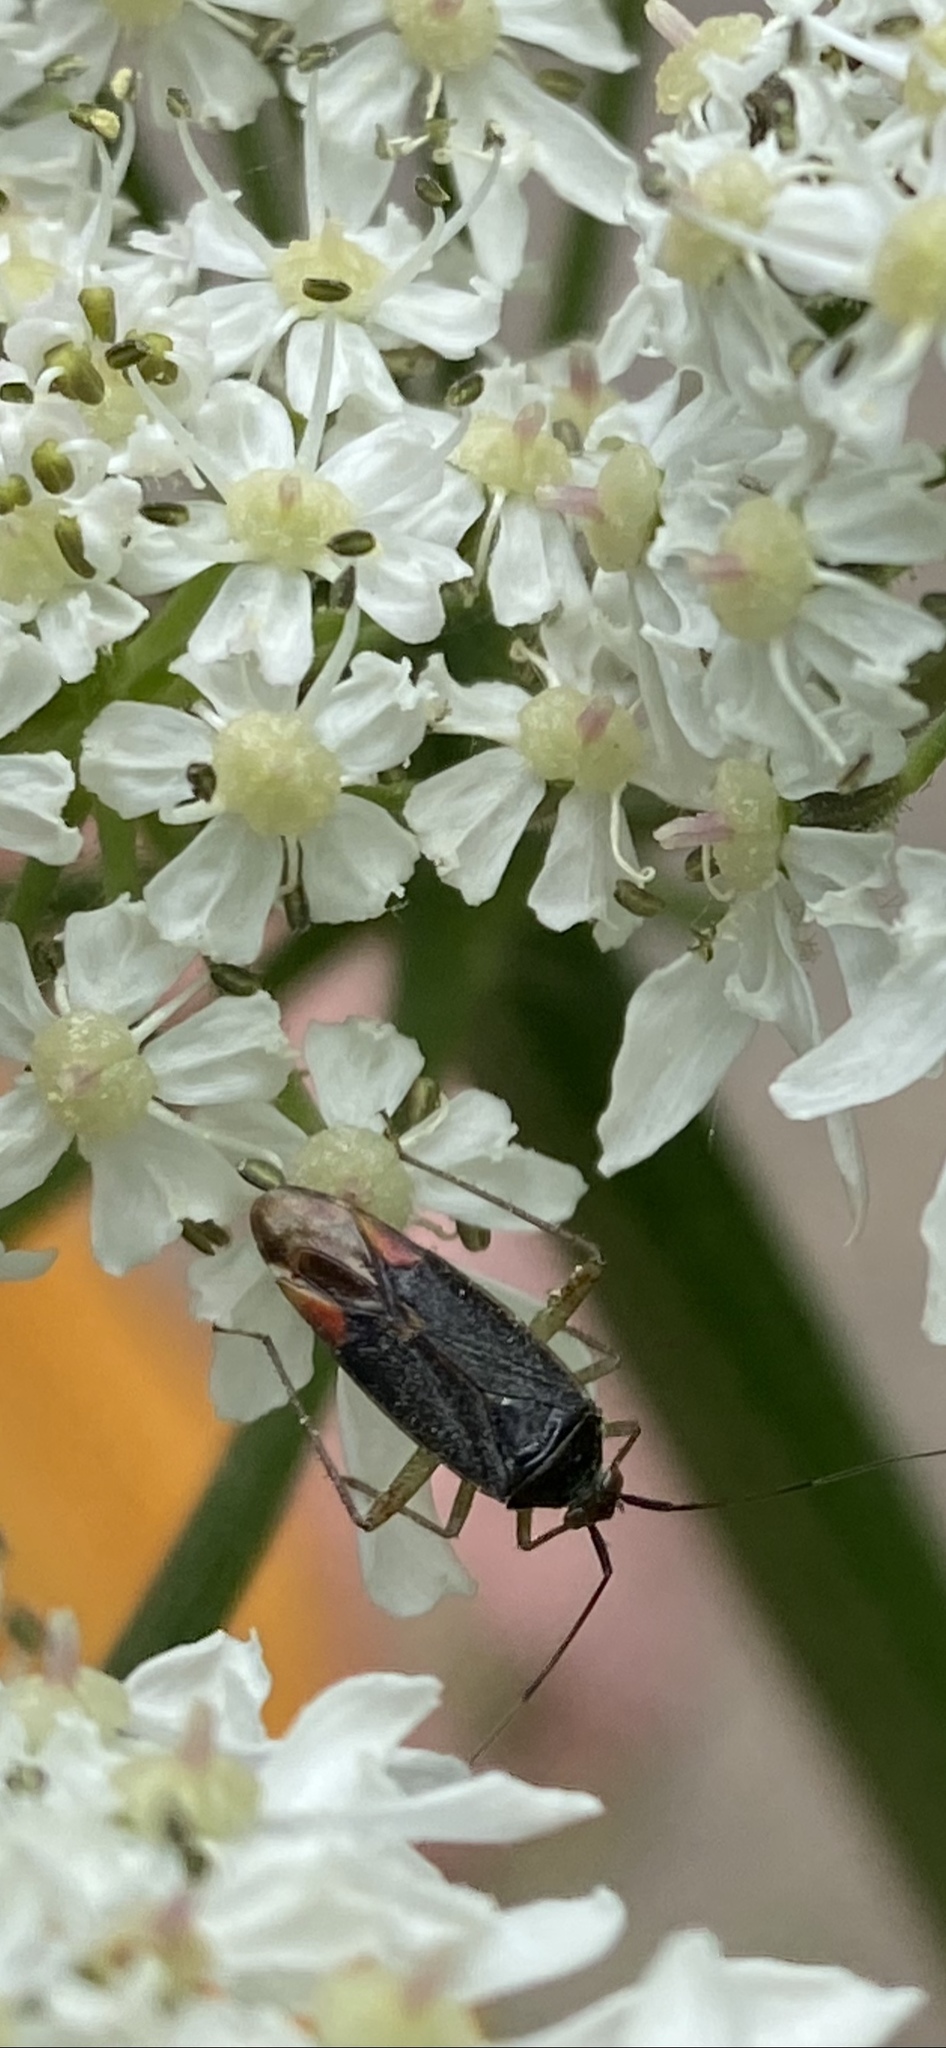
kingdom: Animalia
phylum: Arthropoda
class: Insecta
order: Hemiptera
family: Miridae
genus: Closterotomus
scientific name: Closterotomus trivialis
